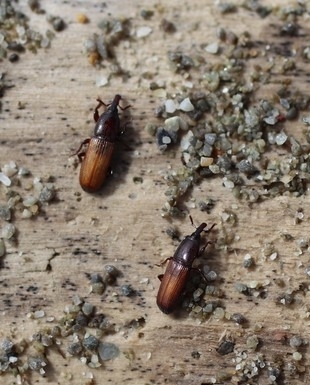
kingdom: Animalia
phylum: Arthropoda
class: Insecta
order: Coleoptera
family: Curculionidae
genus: Mesites
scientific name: Mesites pallidipennis
